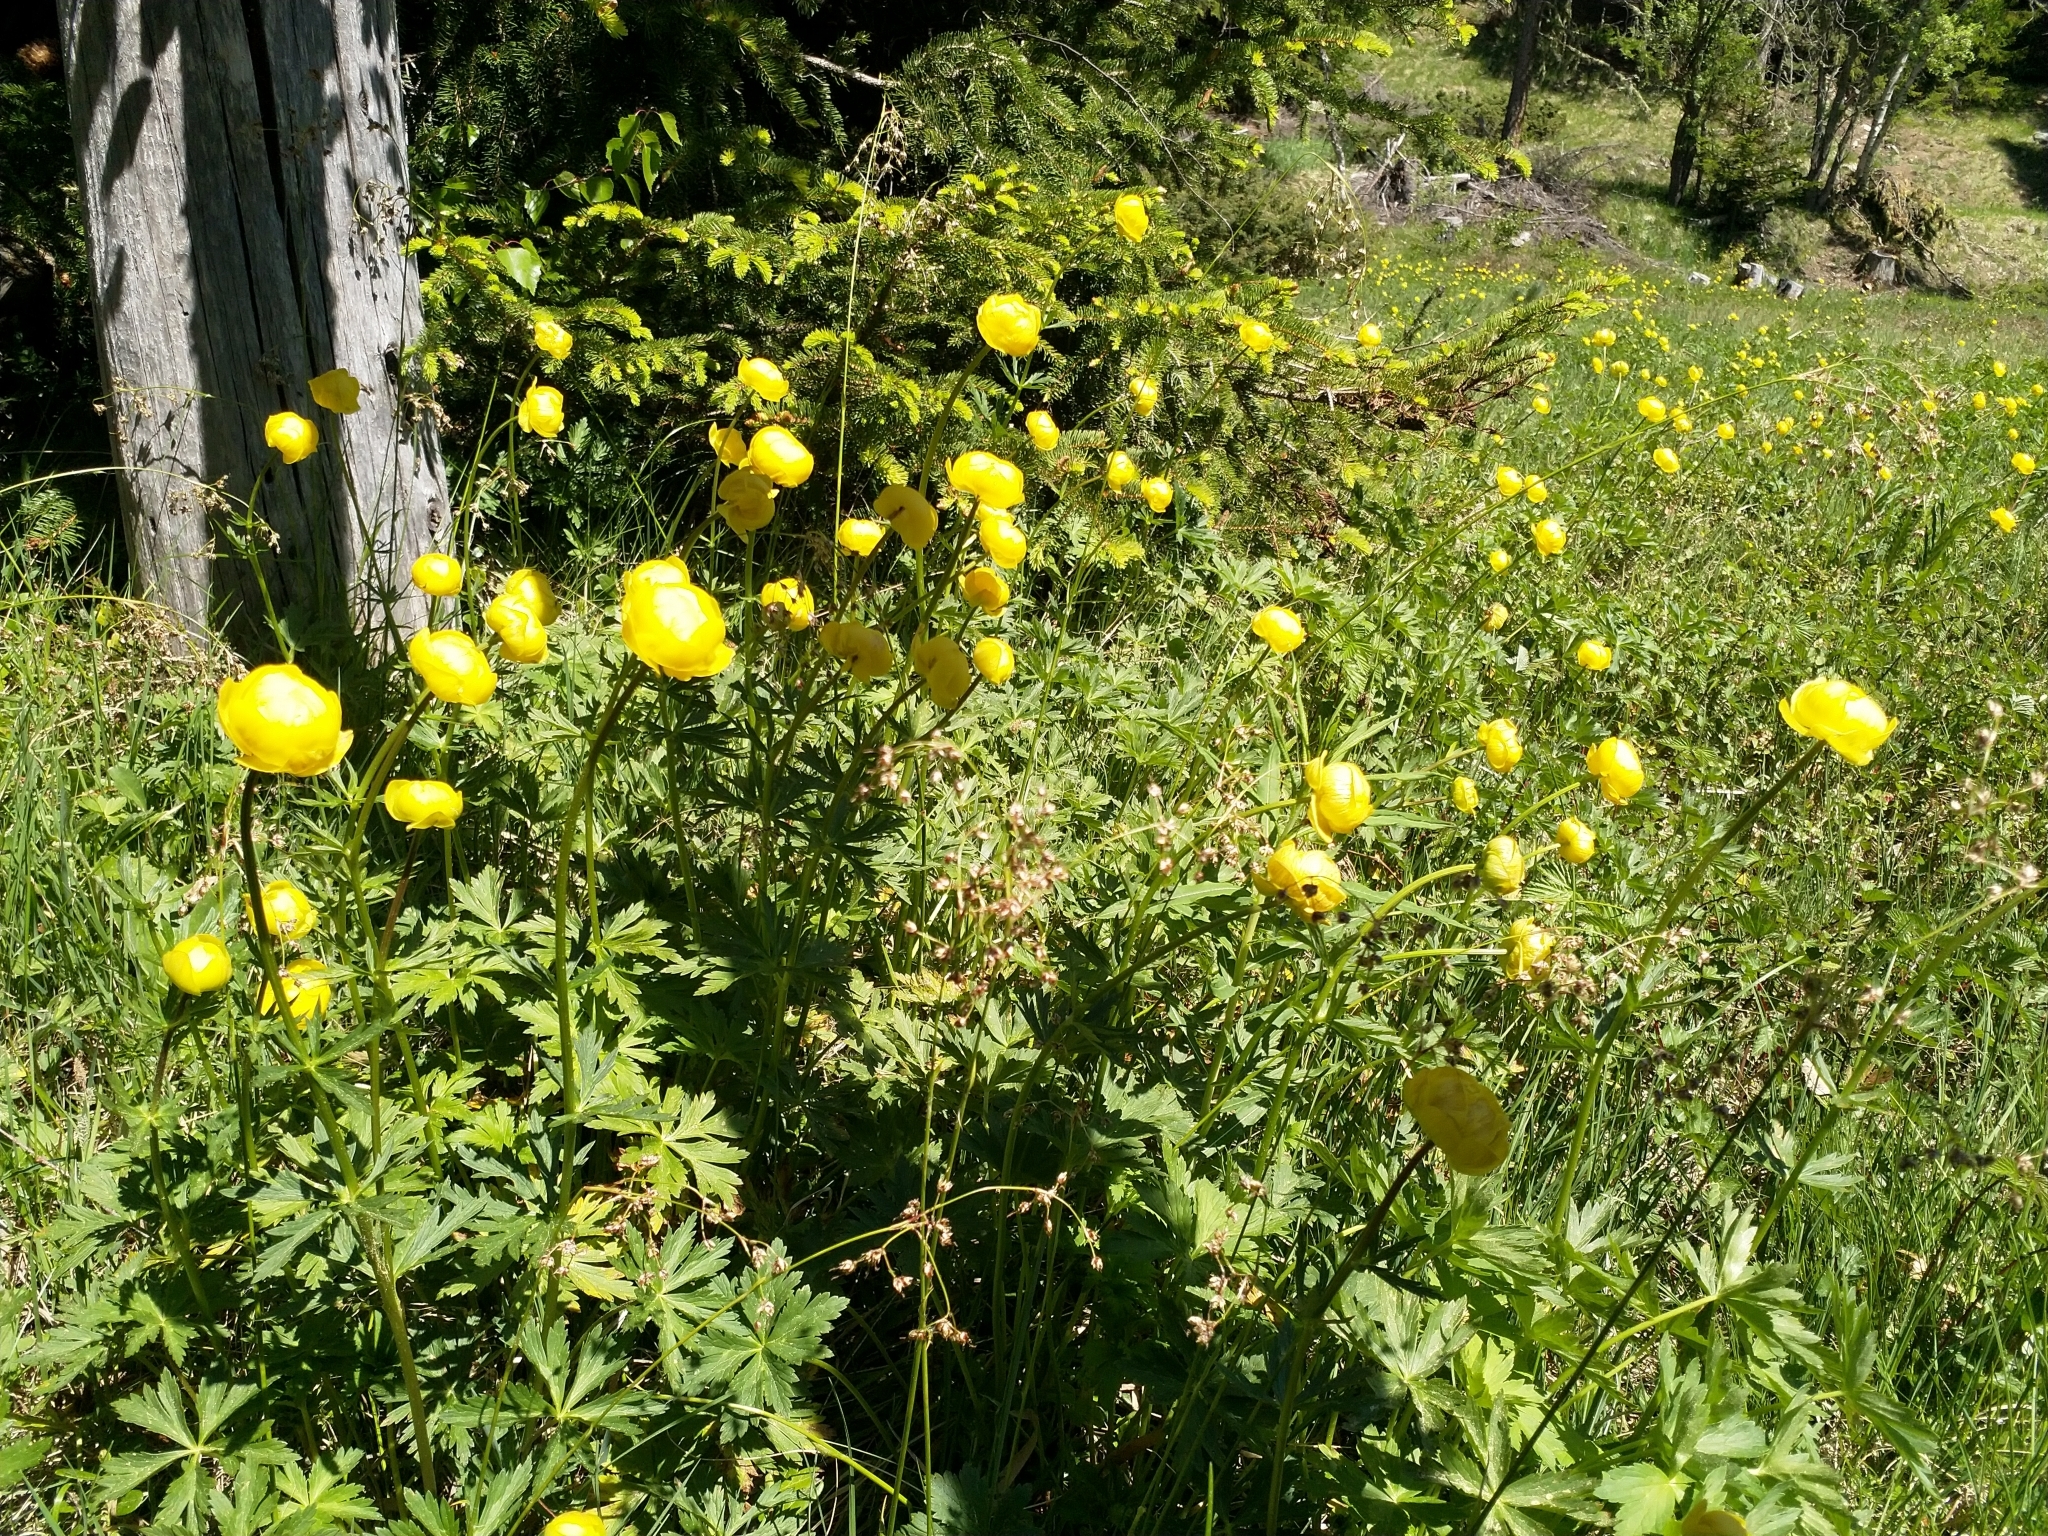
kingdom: Plantae
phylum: Tracheophyta
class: Magnoliopsida
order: Ranunculales
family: Ranunculaceae
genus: Trollius
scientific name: Trollius europaeus
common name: European globeflower
